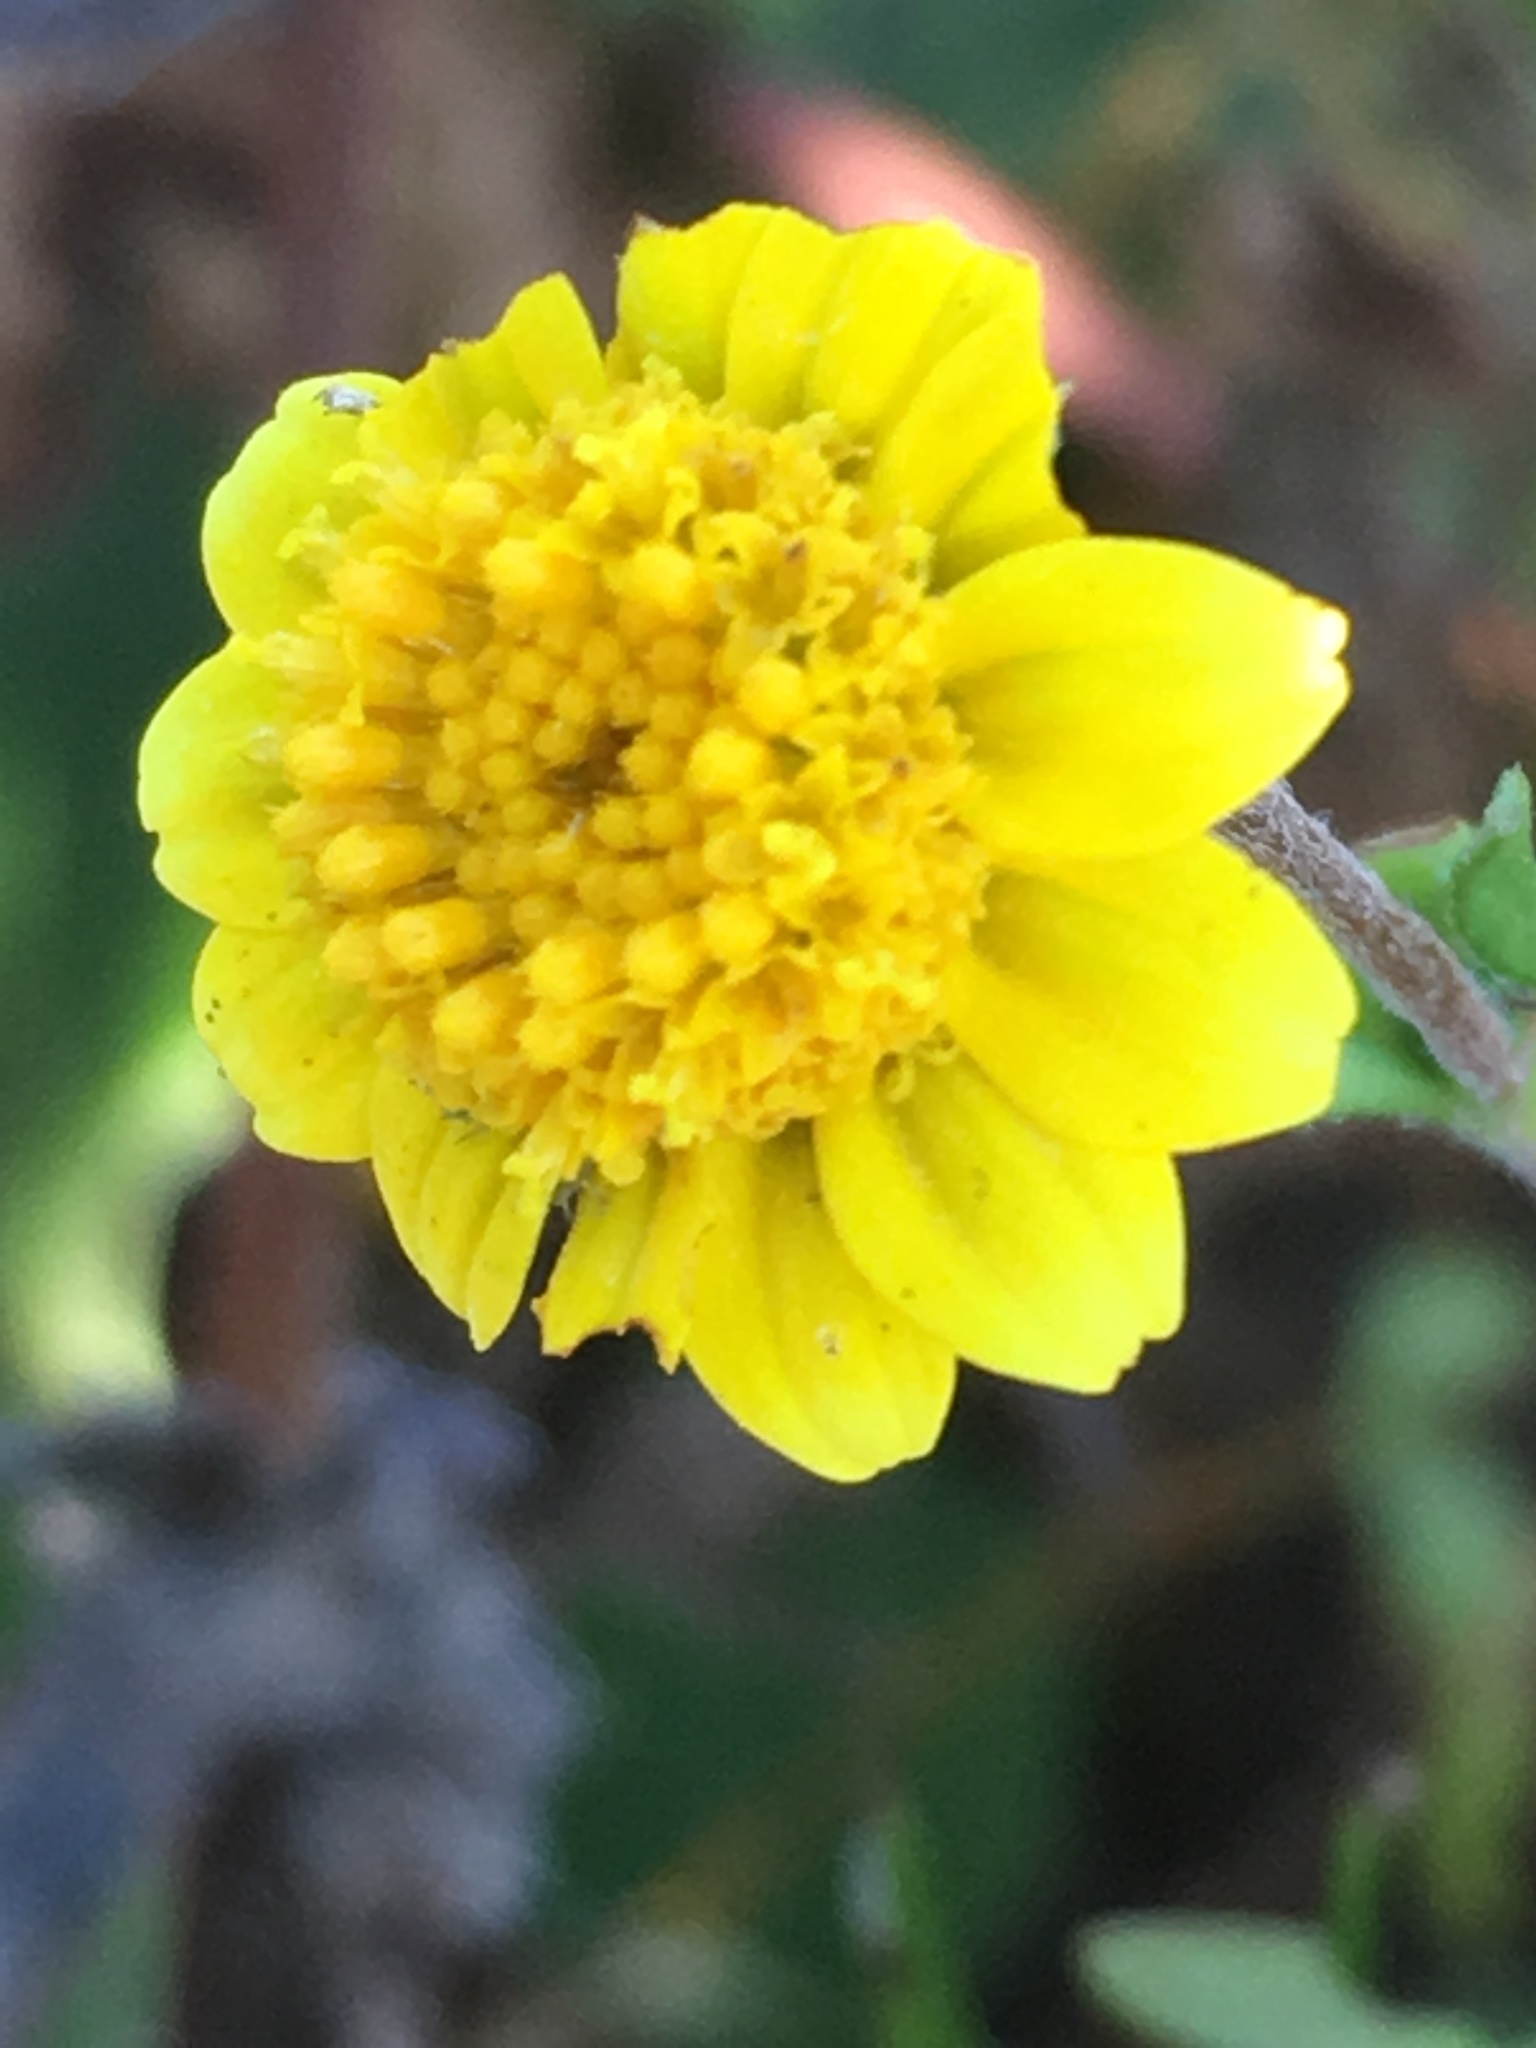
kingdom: Plantae
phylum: Tracheophyta
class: Magnoliopsida
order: Asterales
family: Asteraceae
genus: Lasthenia
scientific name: Lasthenia gracilis
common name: Common goldfields
